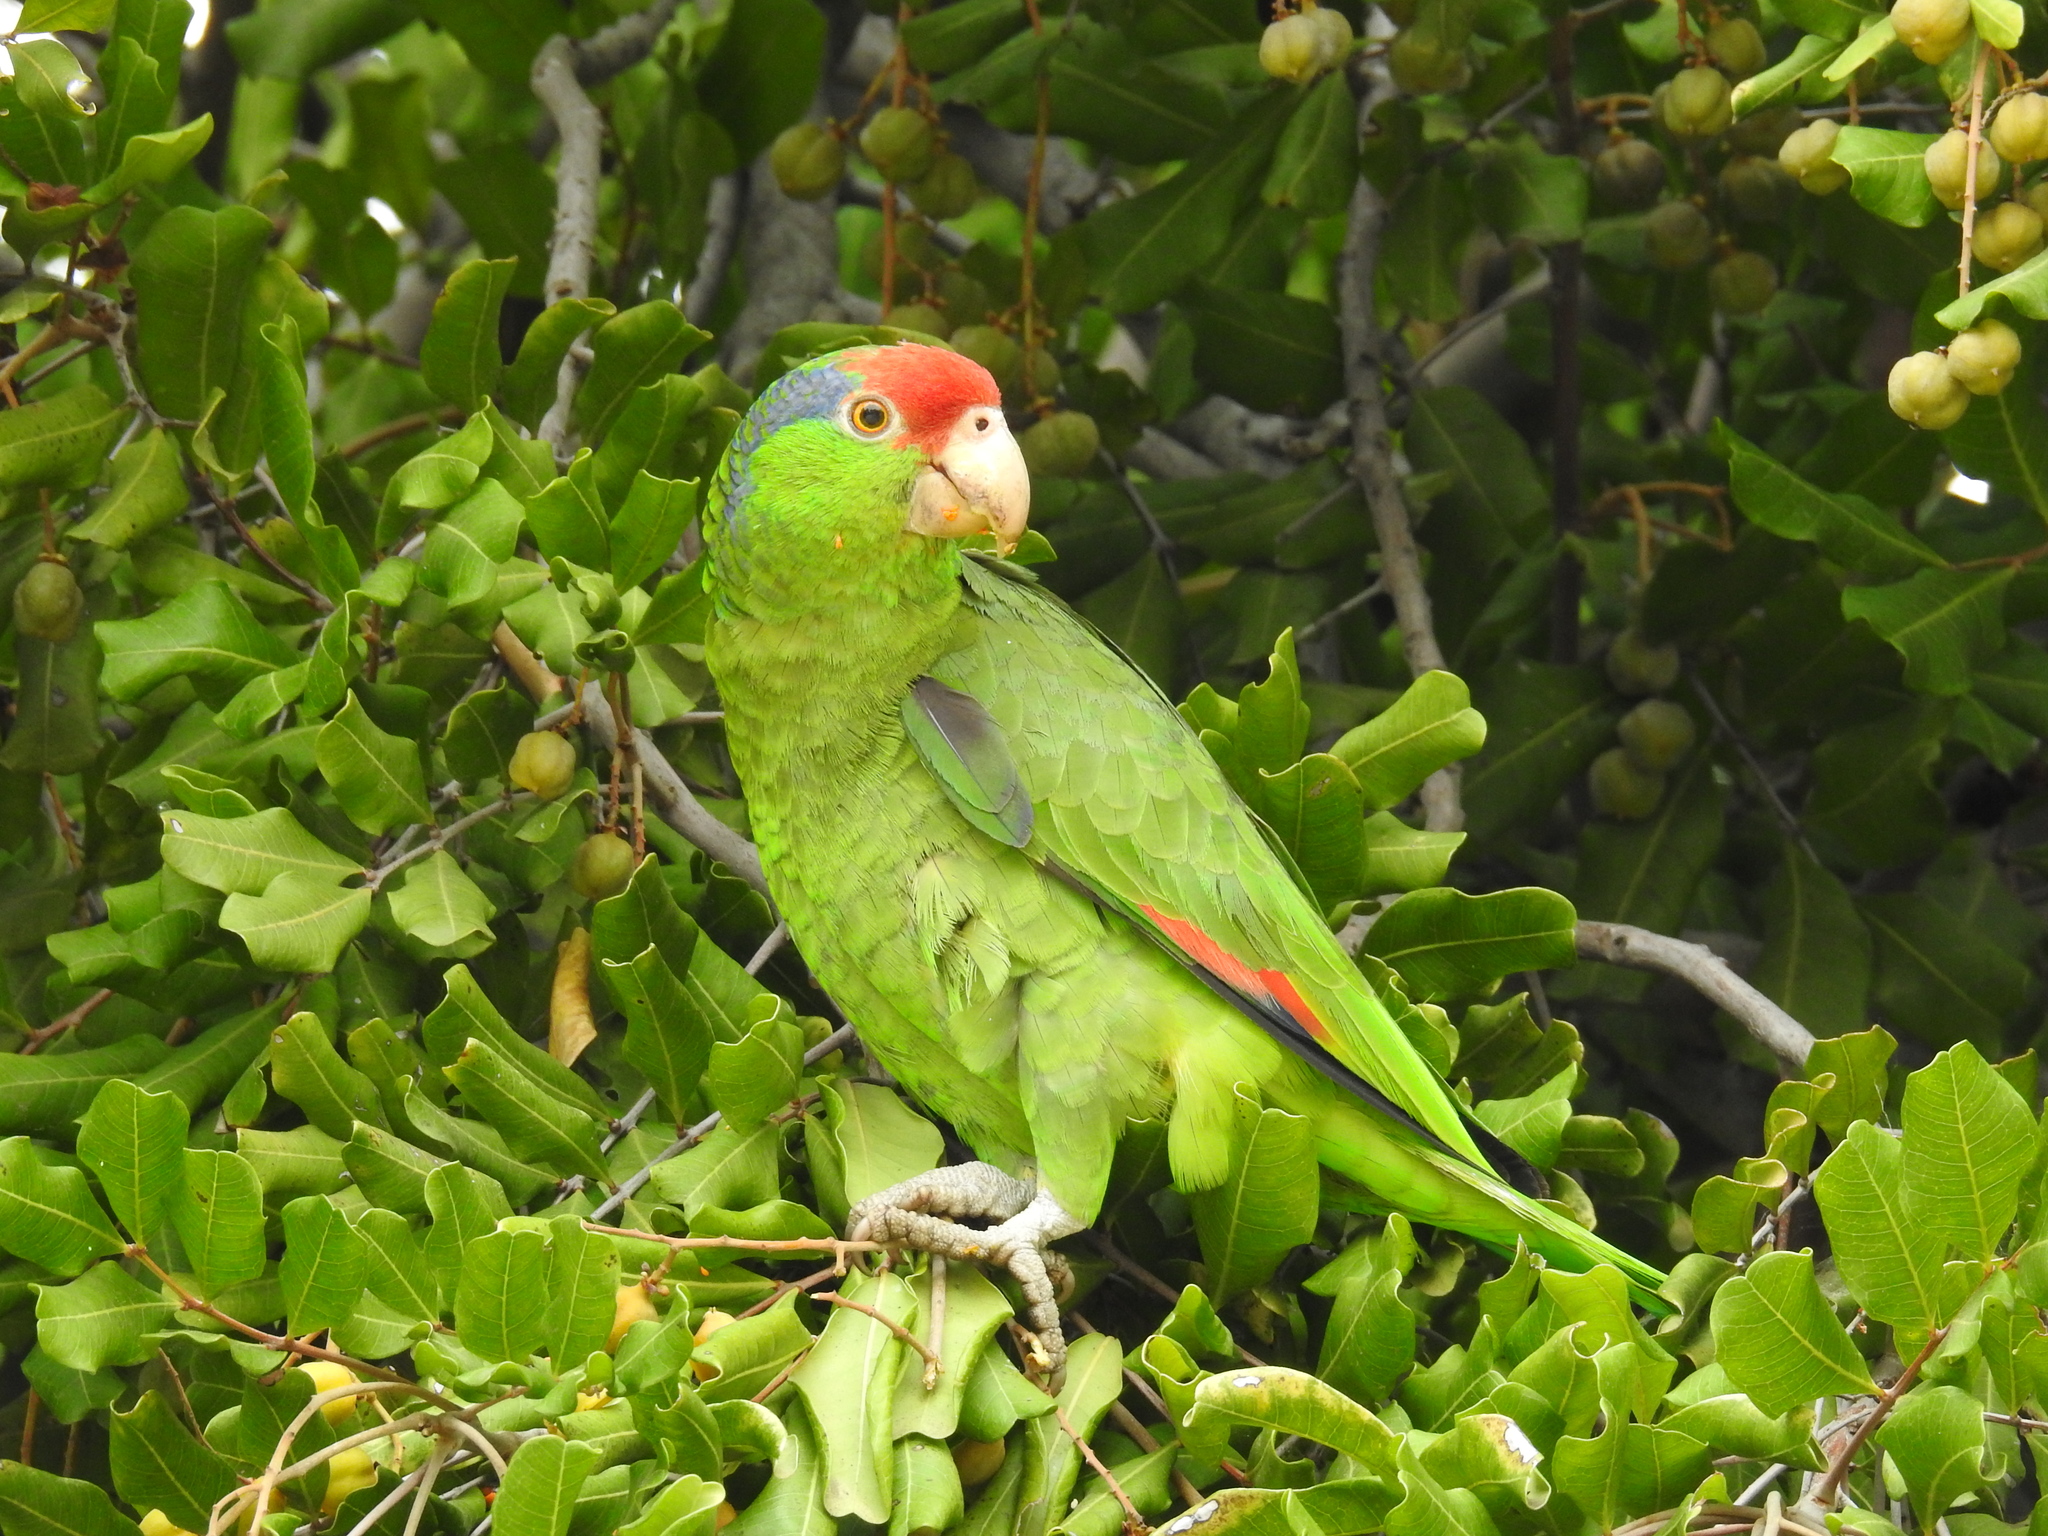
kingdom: Animalia
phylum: Chordata
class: Aves
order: Psittaciformes
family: Psittacidae
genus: Amazona
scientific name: Amazona viridigenalis
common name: Red-crowned amazon
